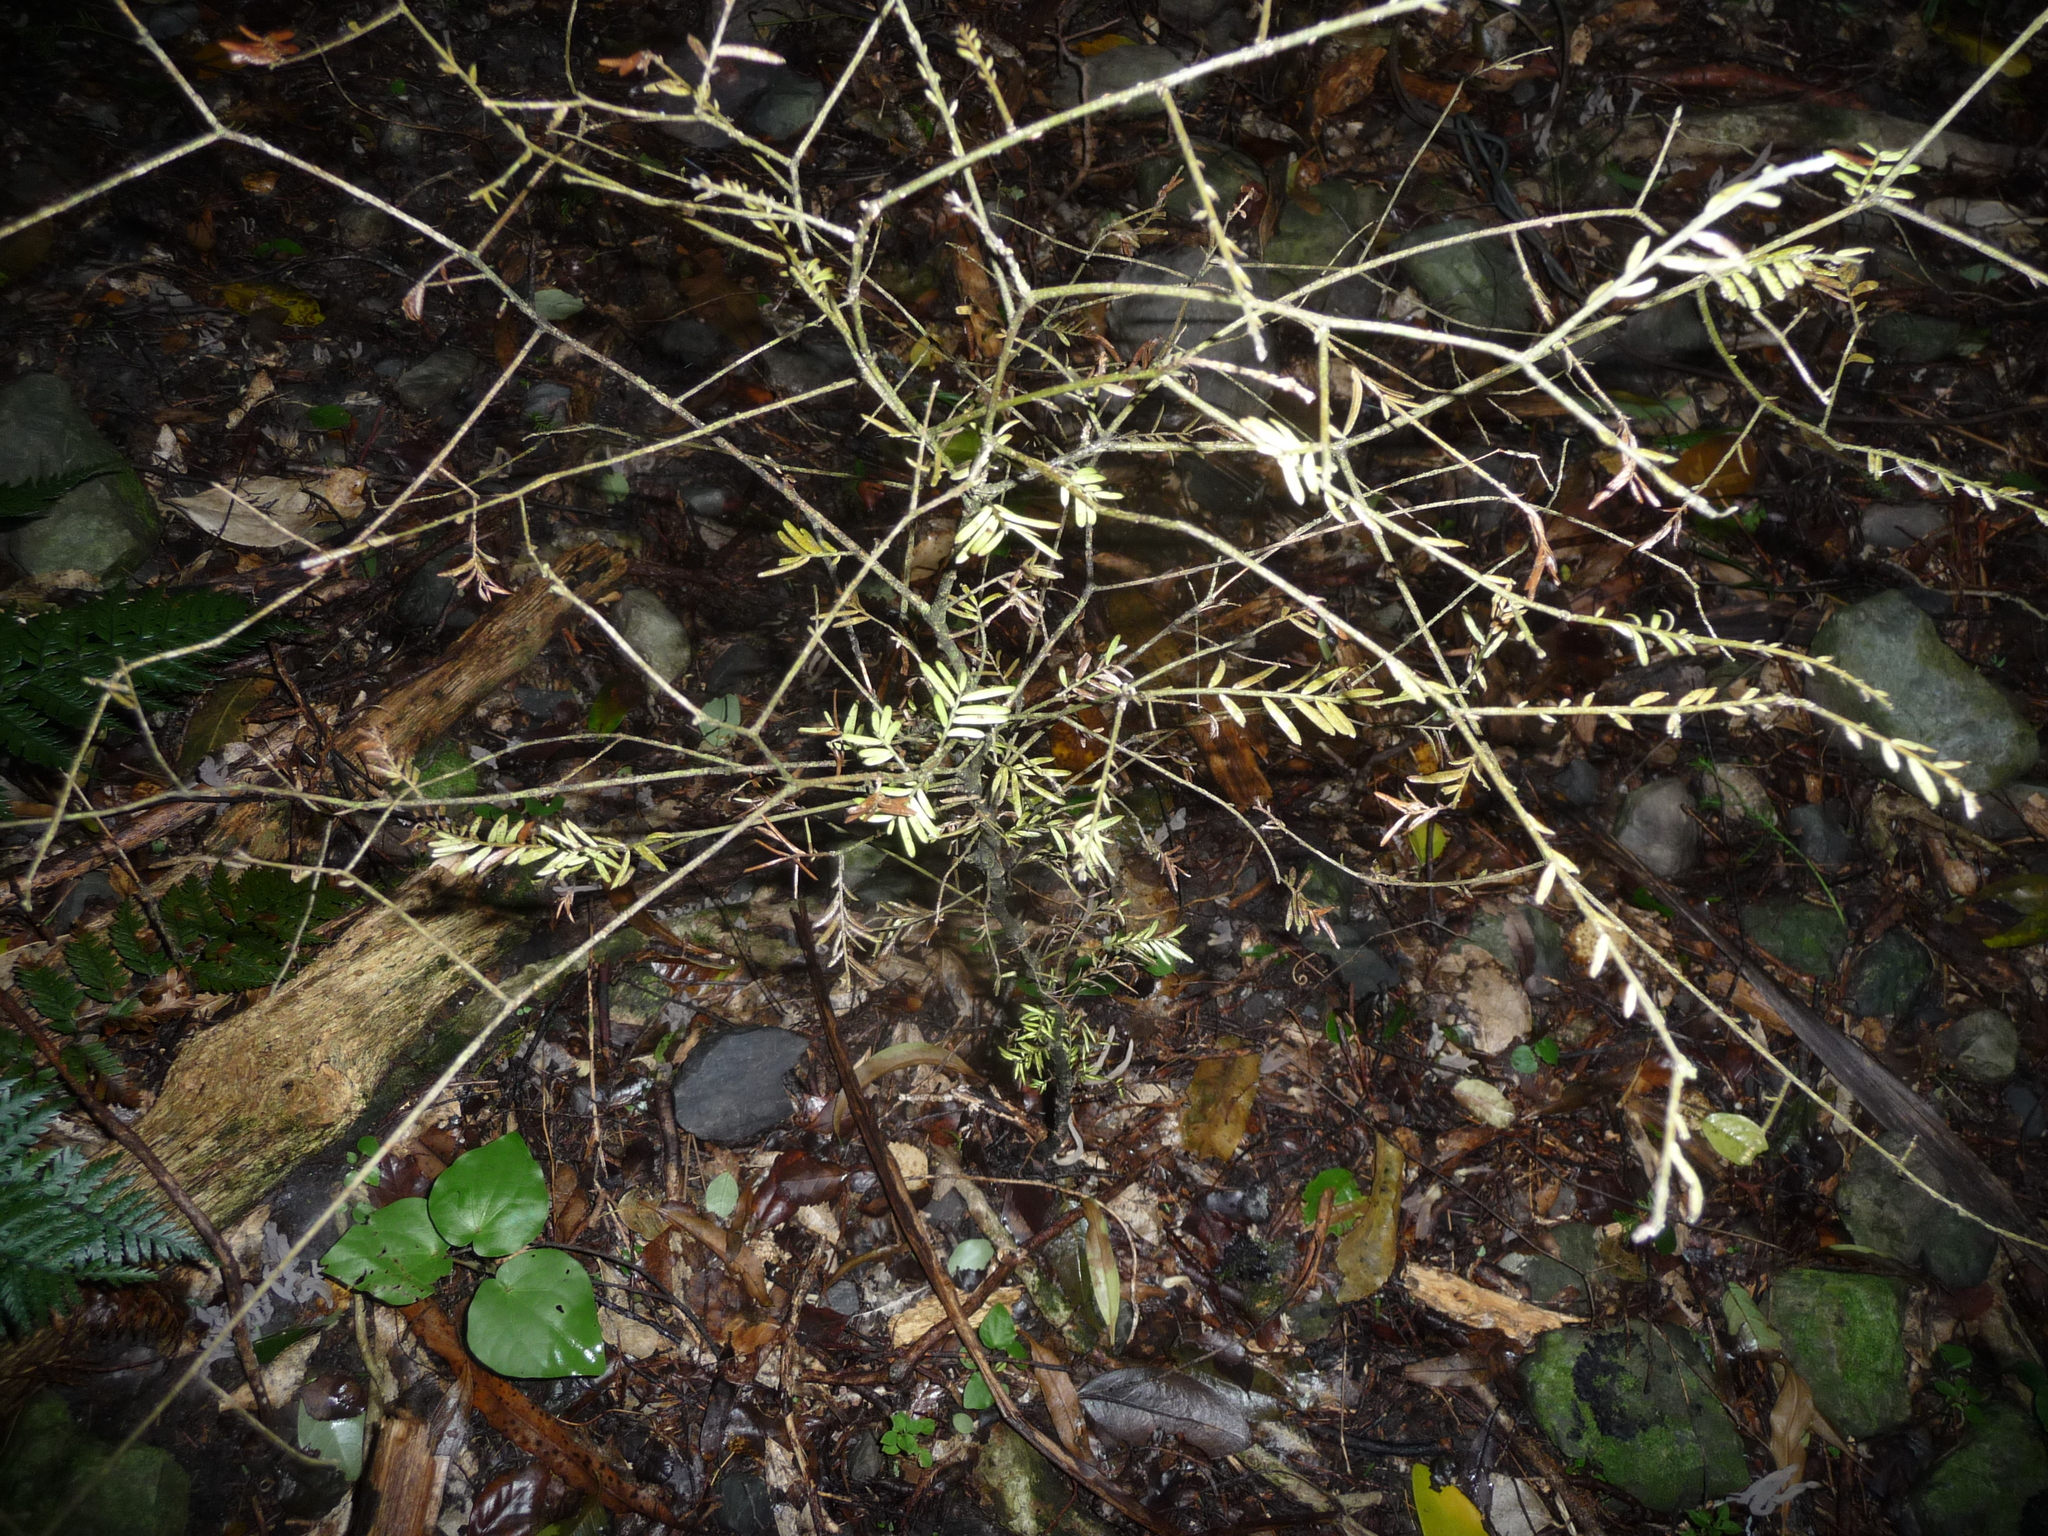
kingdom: Plantae
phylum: Tracheophyta
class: Pinopsida
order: Pinales
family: Podocarpaceae
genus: Prumnopitys
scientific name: Prumnopitys taxifolia
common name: Matai
